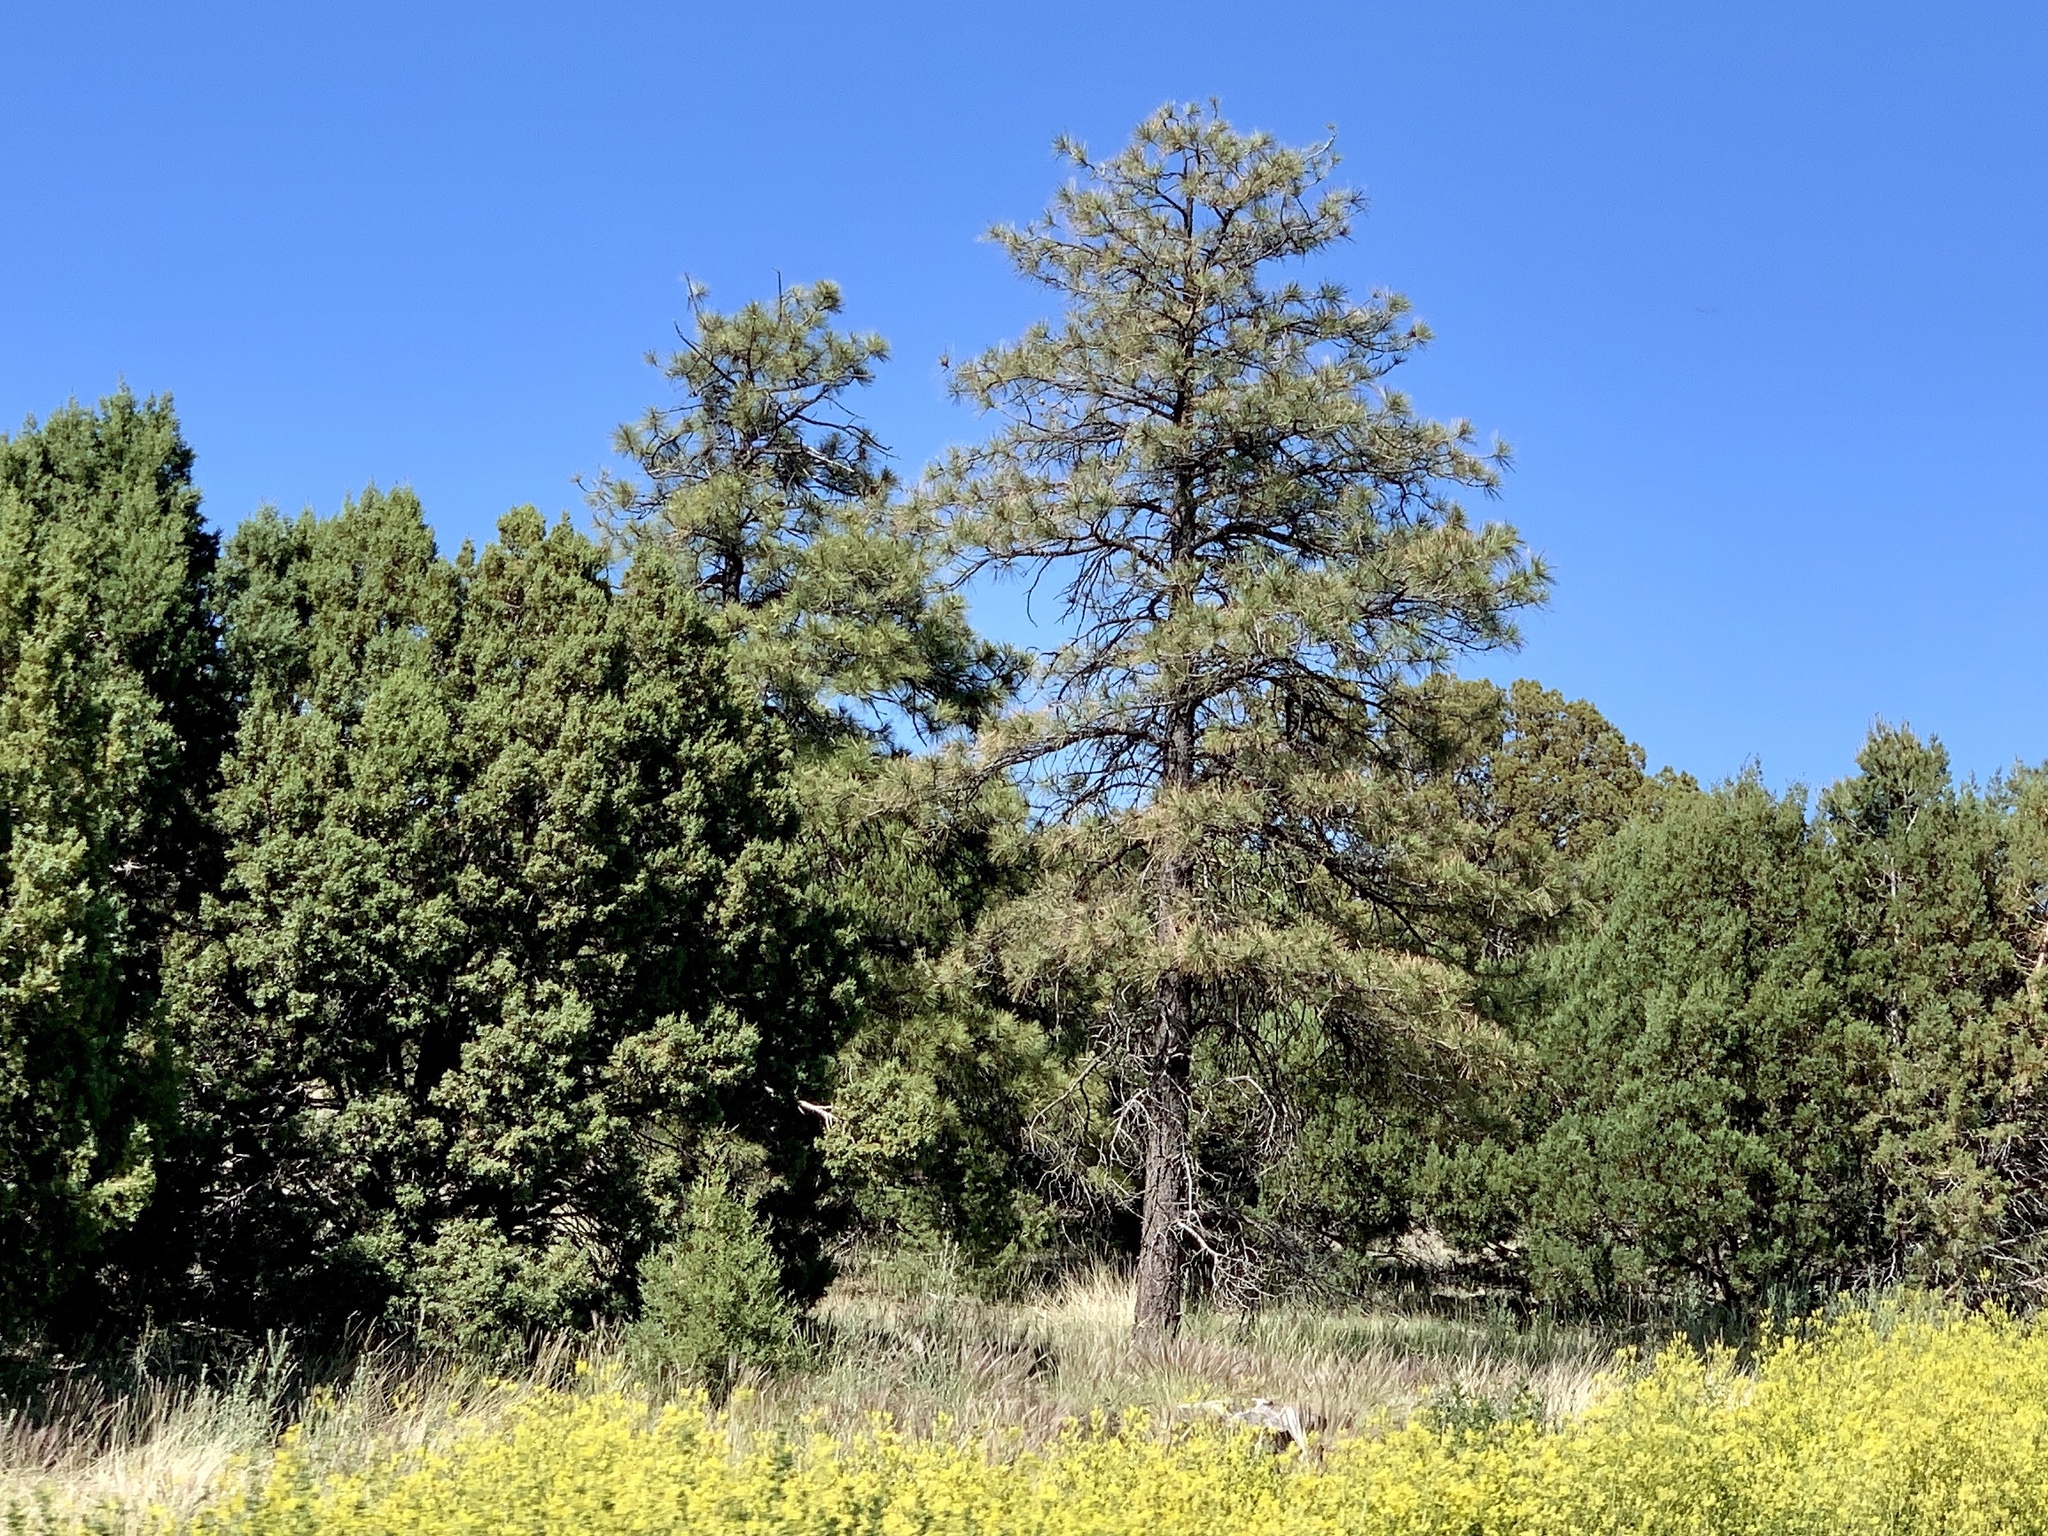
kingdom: Plantae
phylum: Tracheophyta
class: Pinopsida
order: Pinales
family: Pinaceae
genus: Pinus
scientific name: Pinus ponderosa
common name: Western yellow-pine
